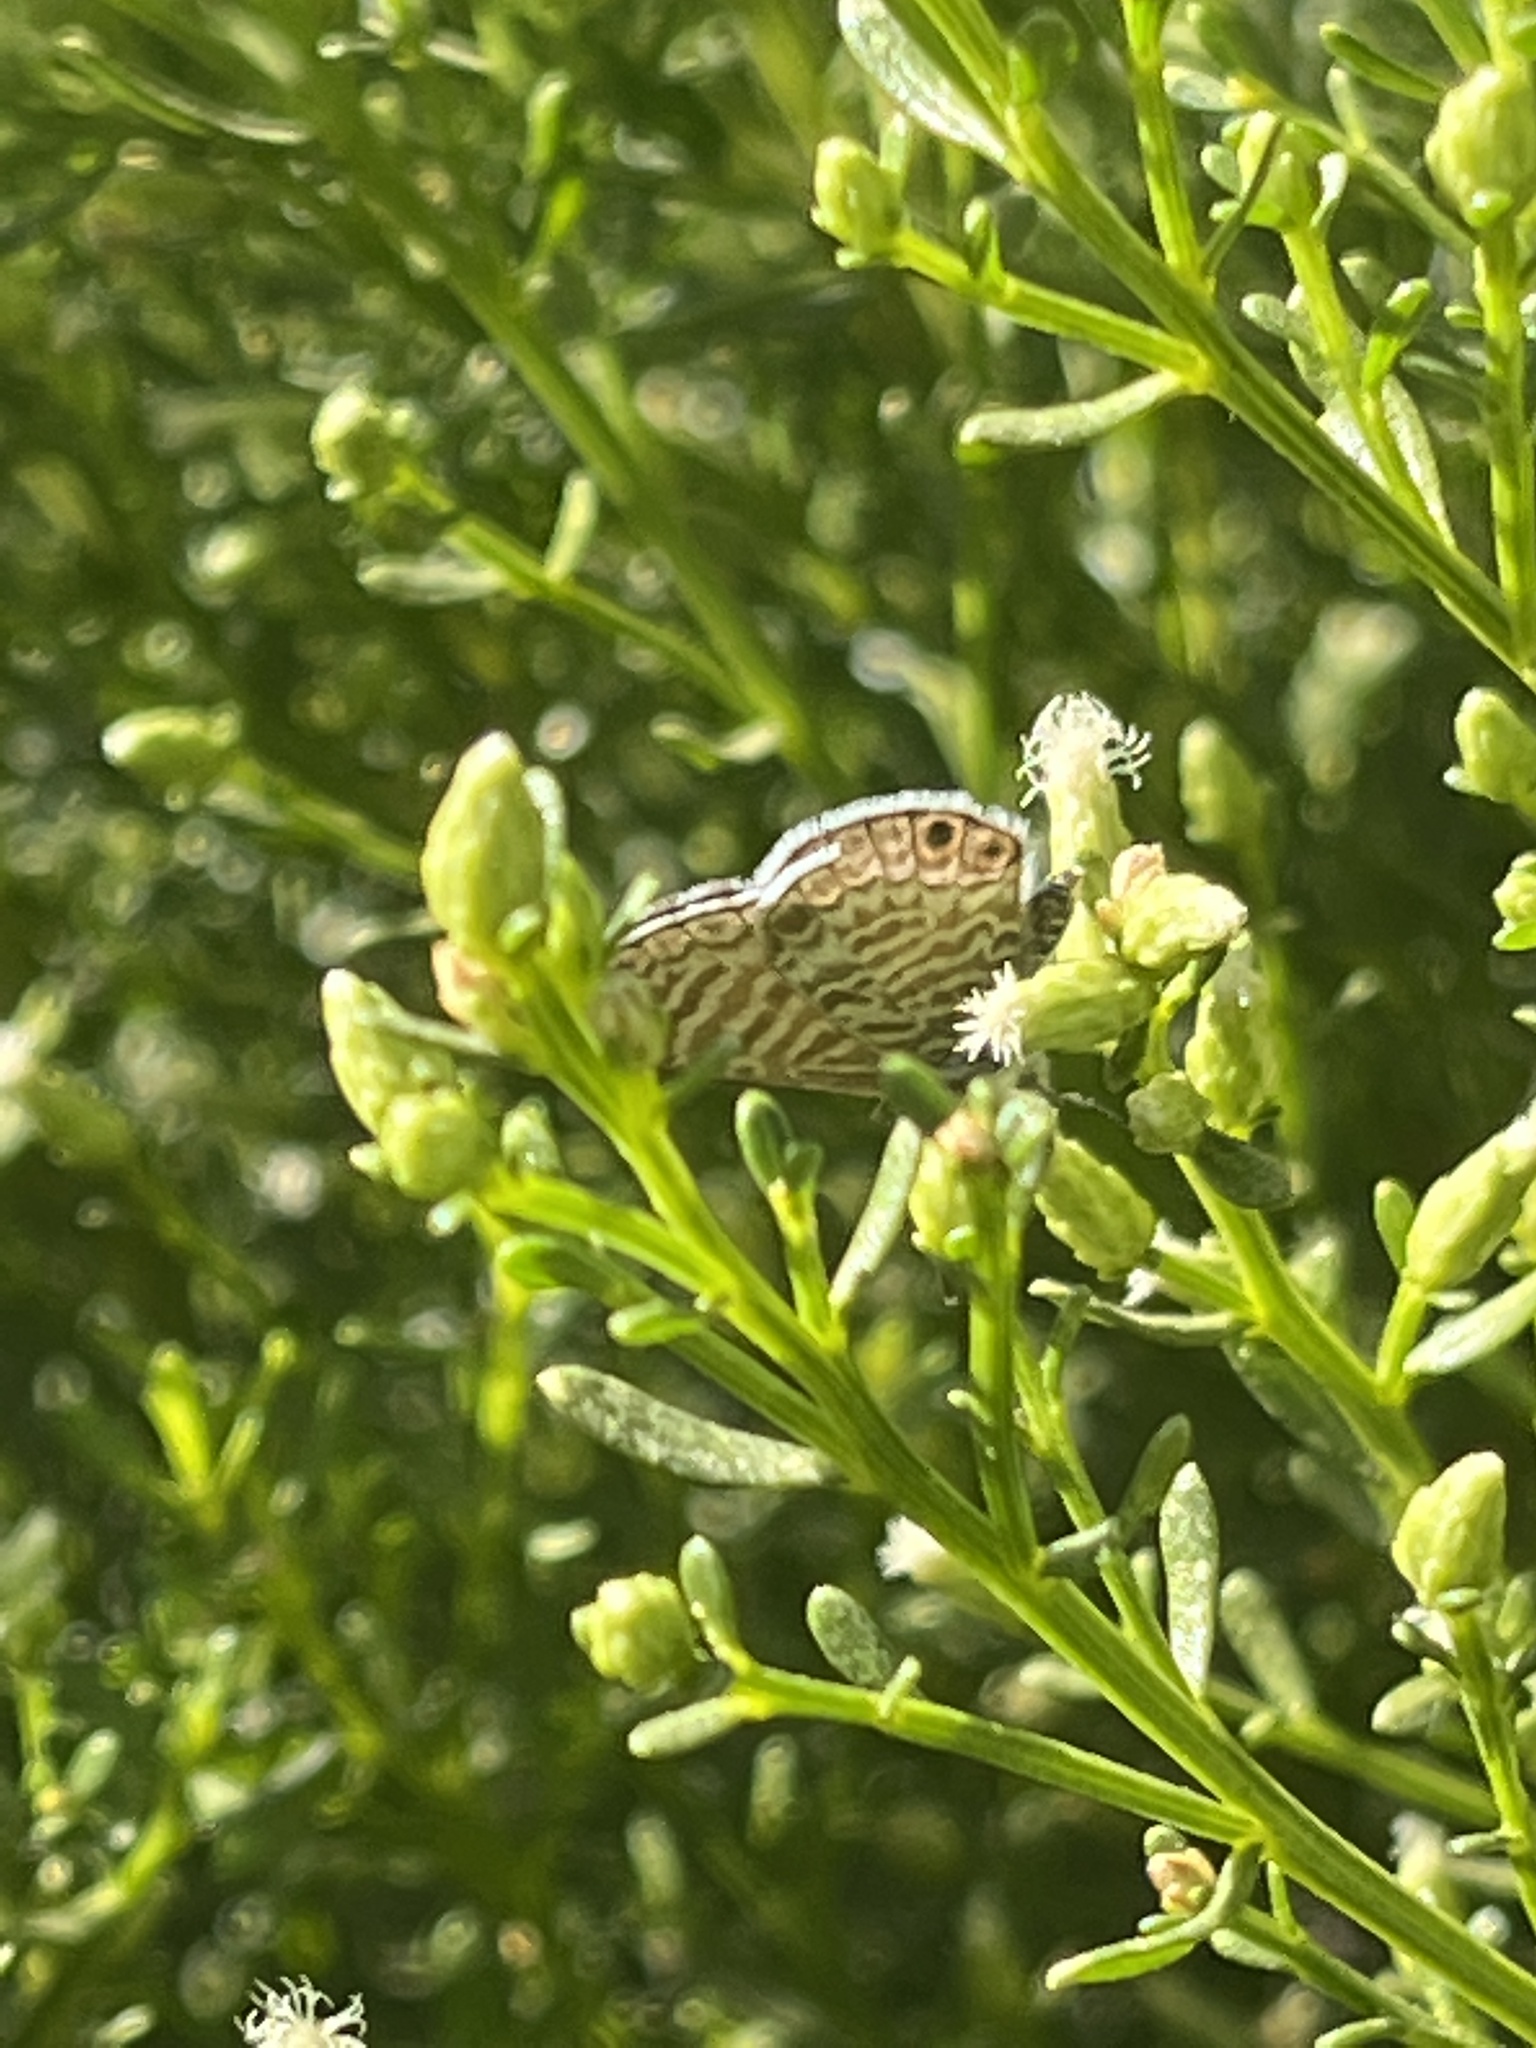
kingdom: Animalia
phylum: Arthropoda
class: Insecta
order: Lepidoptera
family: Lycaenidae
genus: Leptotes
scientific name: Leptotes marina
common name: Marine blue
